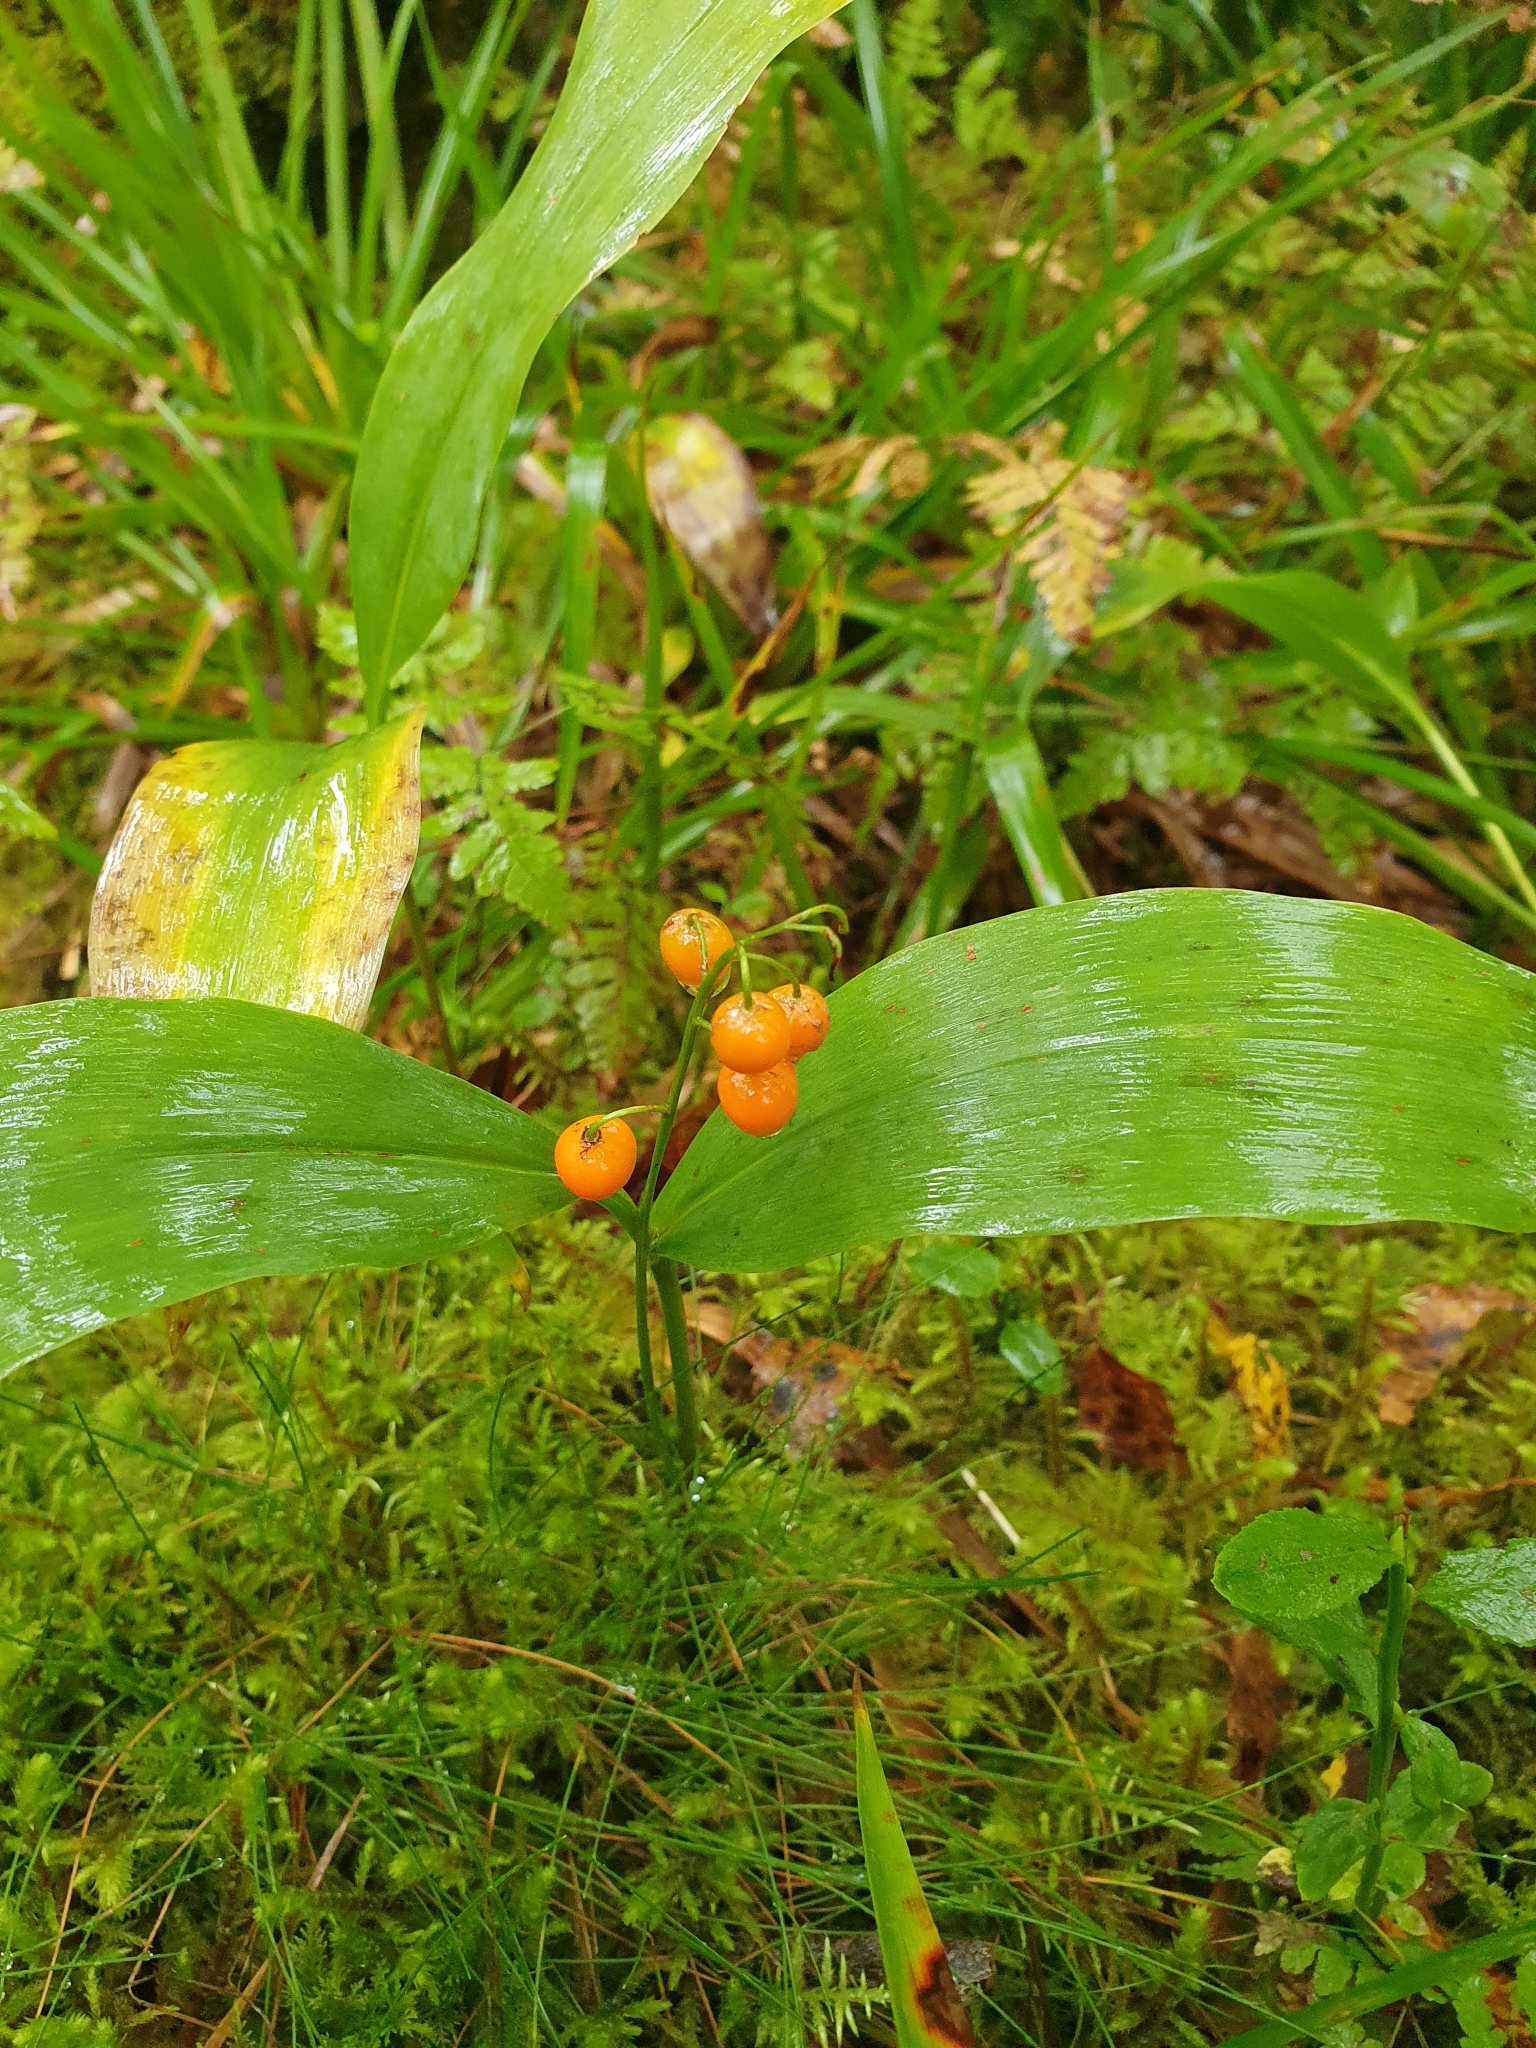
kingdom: Plantae
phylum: Tracheophyta
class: Liliopsida
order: Asparagales
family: Asparagaceae
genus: Convallaria
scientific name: Convallaria majalis
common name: Lily-of-the-valley
